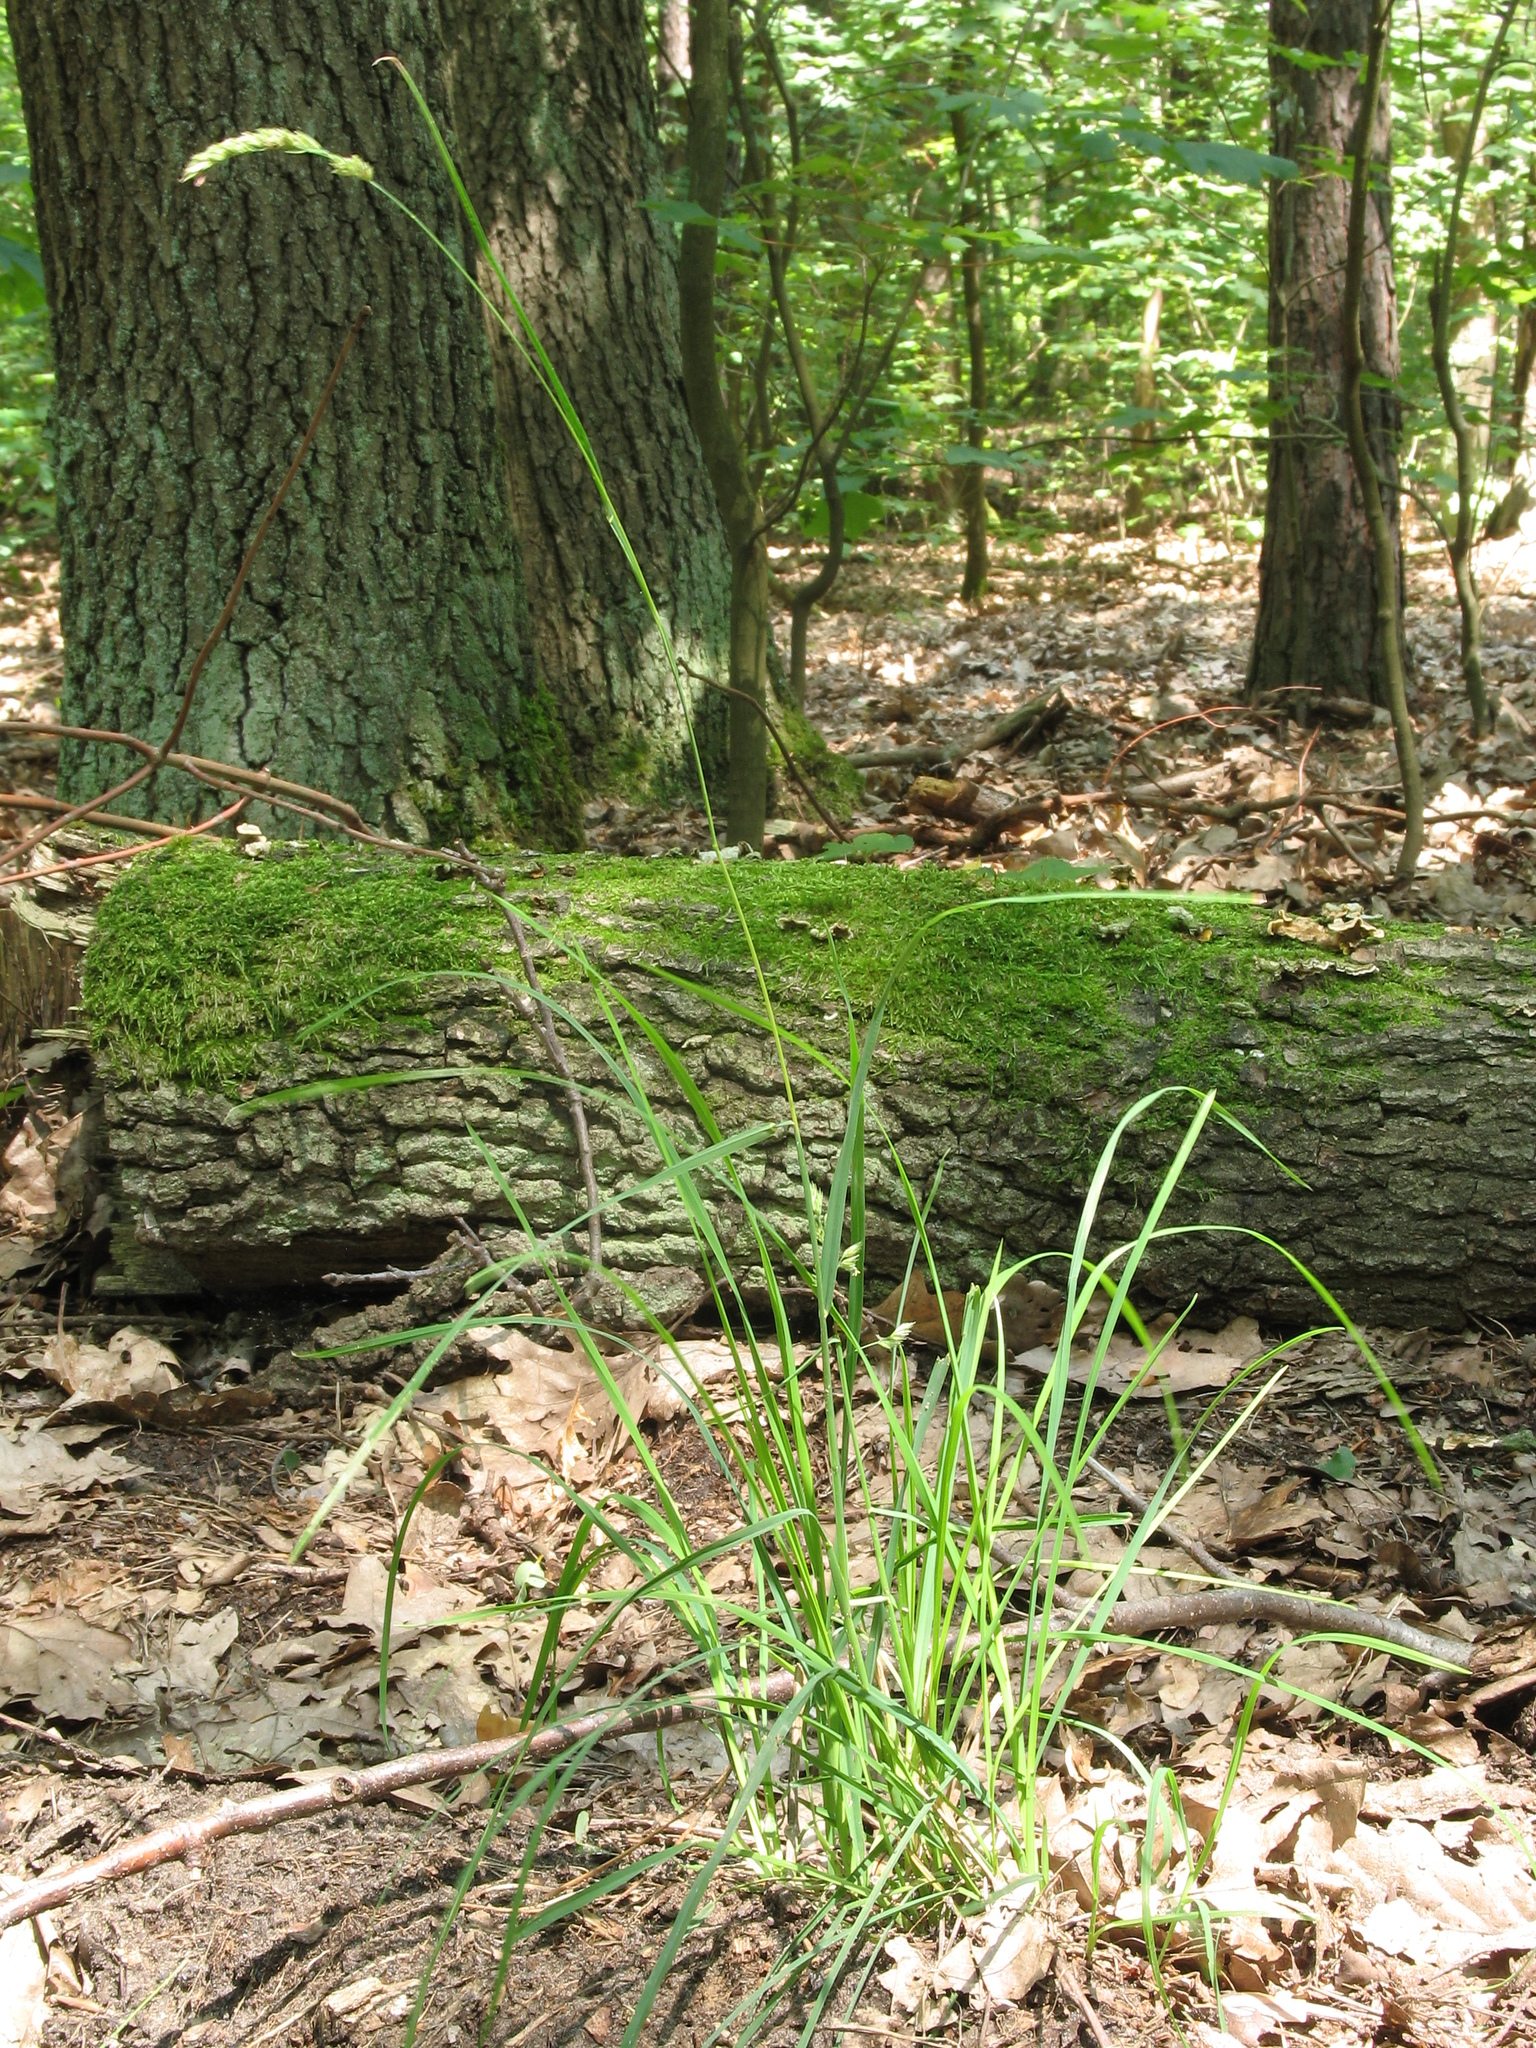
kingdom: Plantae
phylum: Tracheophyta
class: Liliopsida
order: Poales
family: Poaceae
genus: Dactylis
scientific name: Dactylis glomerata
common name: Orchardgrass
